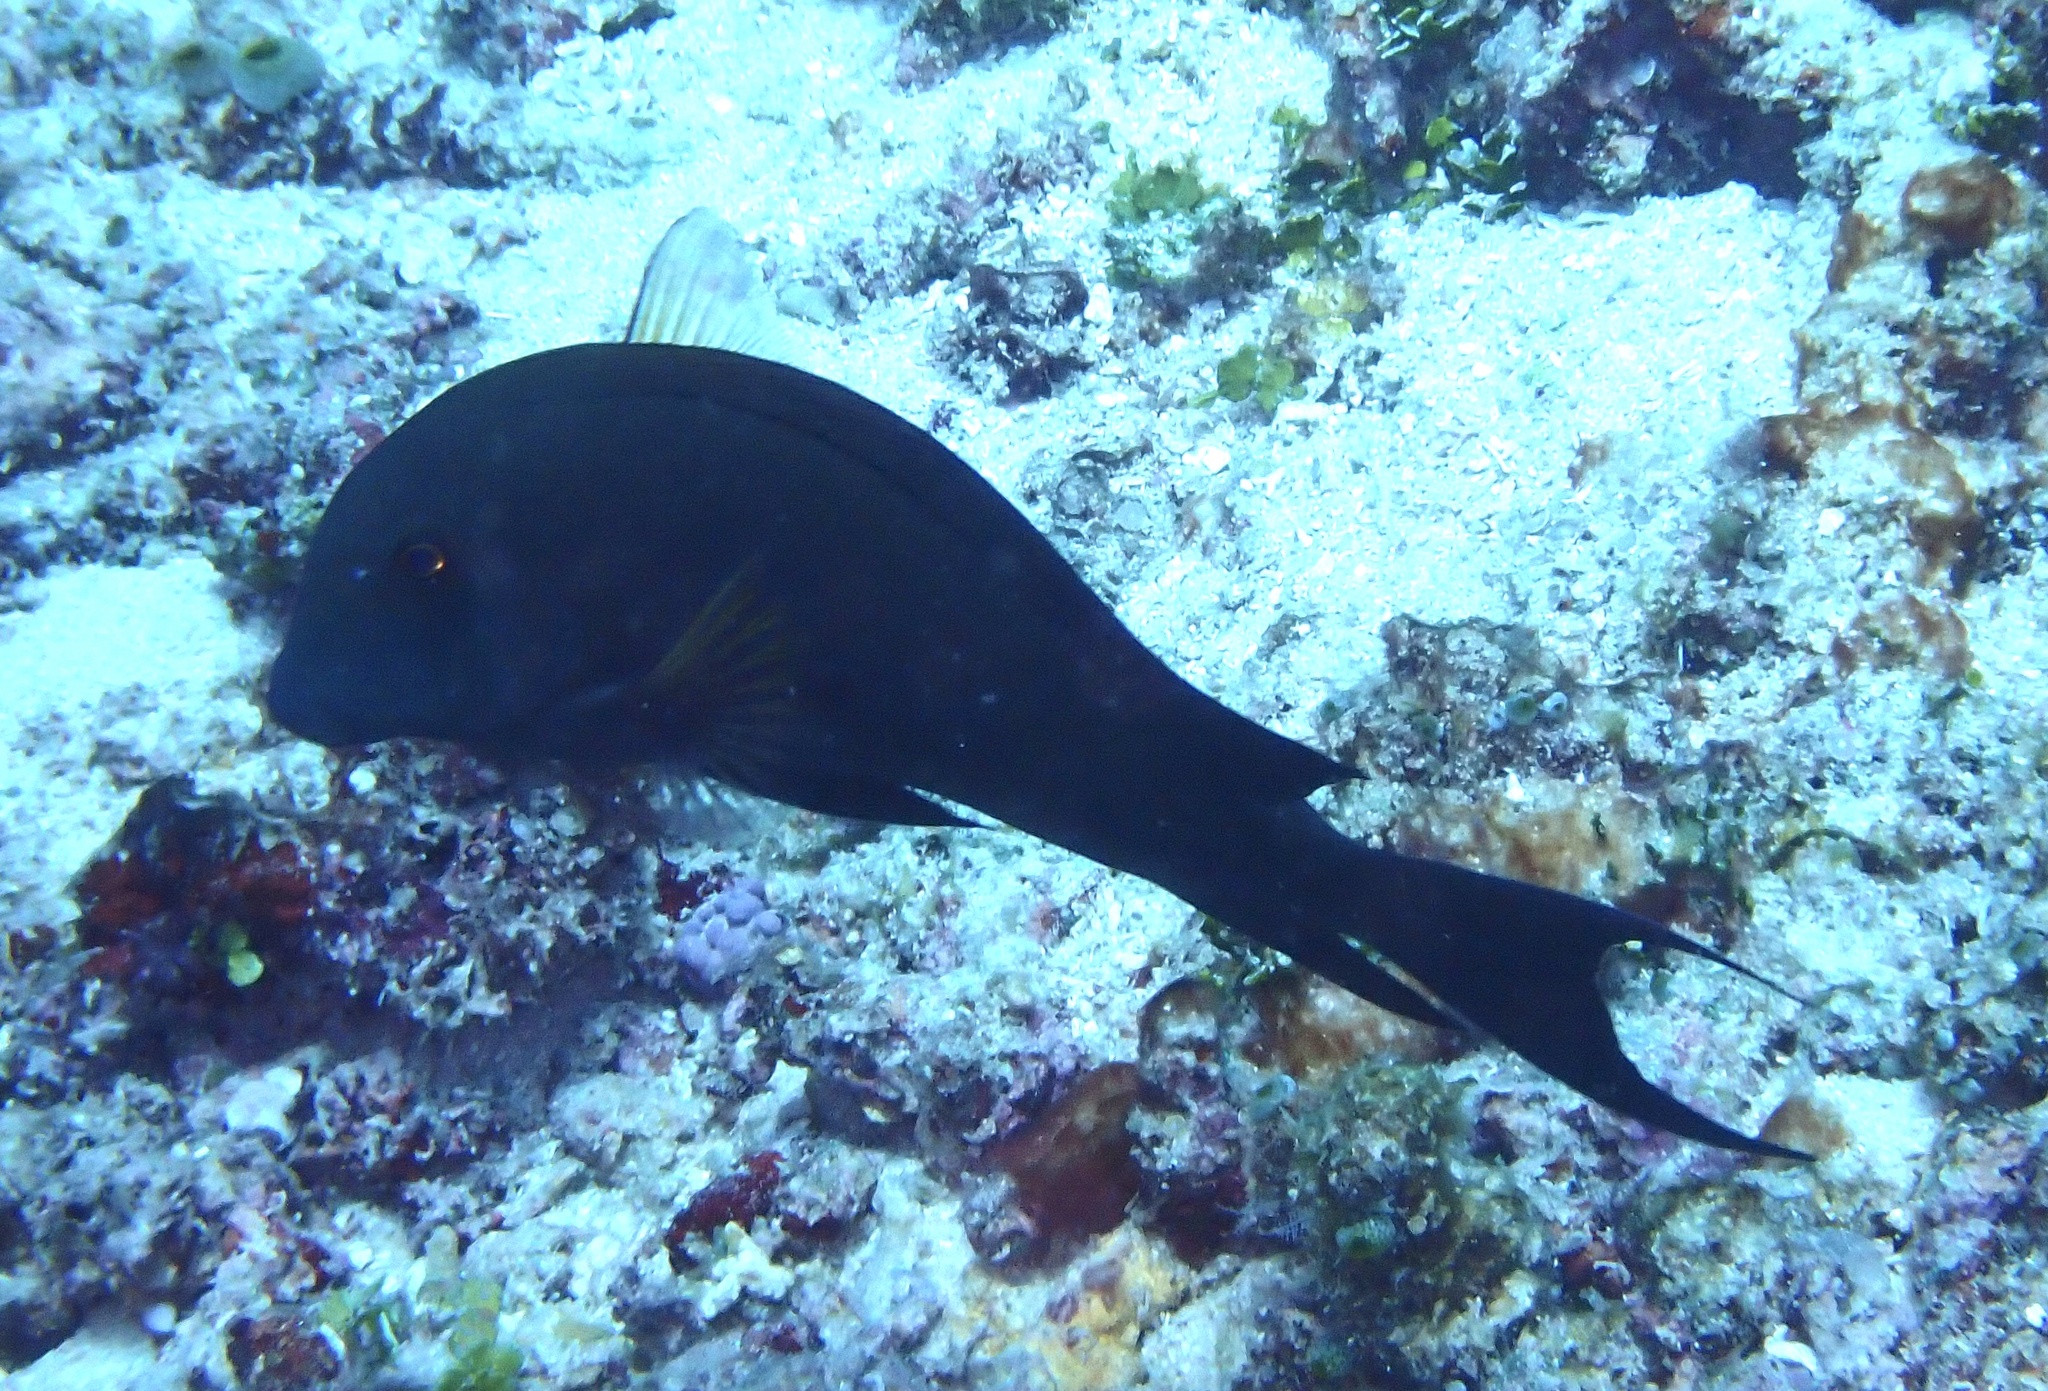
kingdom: Animalia
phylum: Chordata
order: Perciformes
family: Acanthuridae
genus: Acanthurus
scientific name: Acanthurus nigrofuscus
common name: Blackspot surgeonfish
